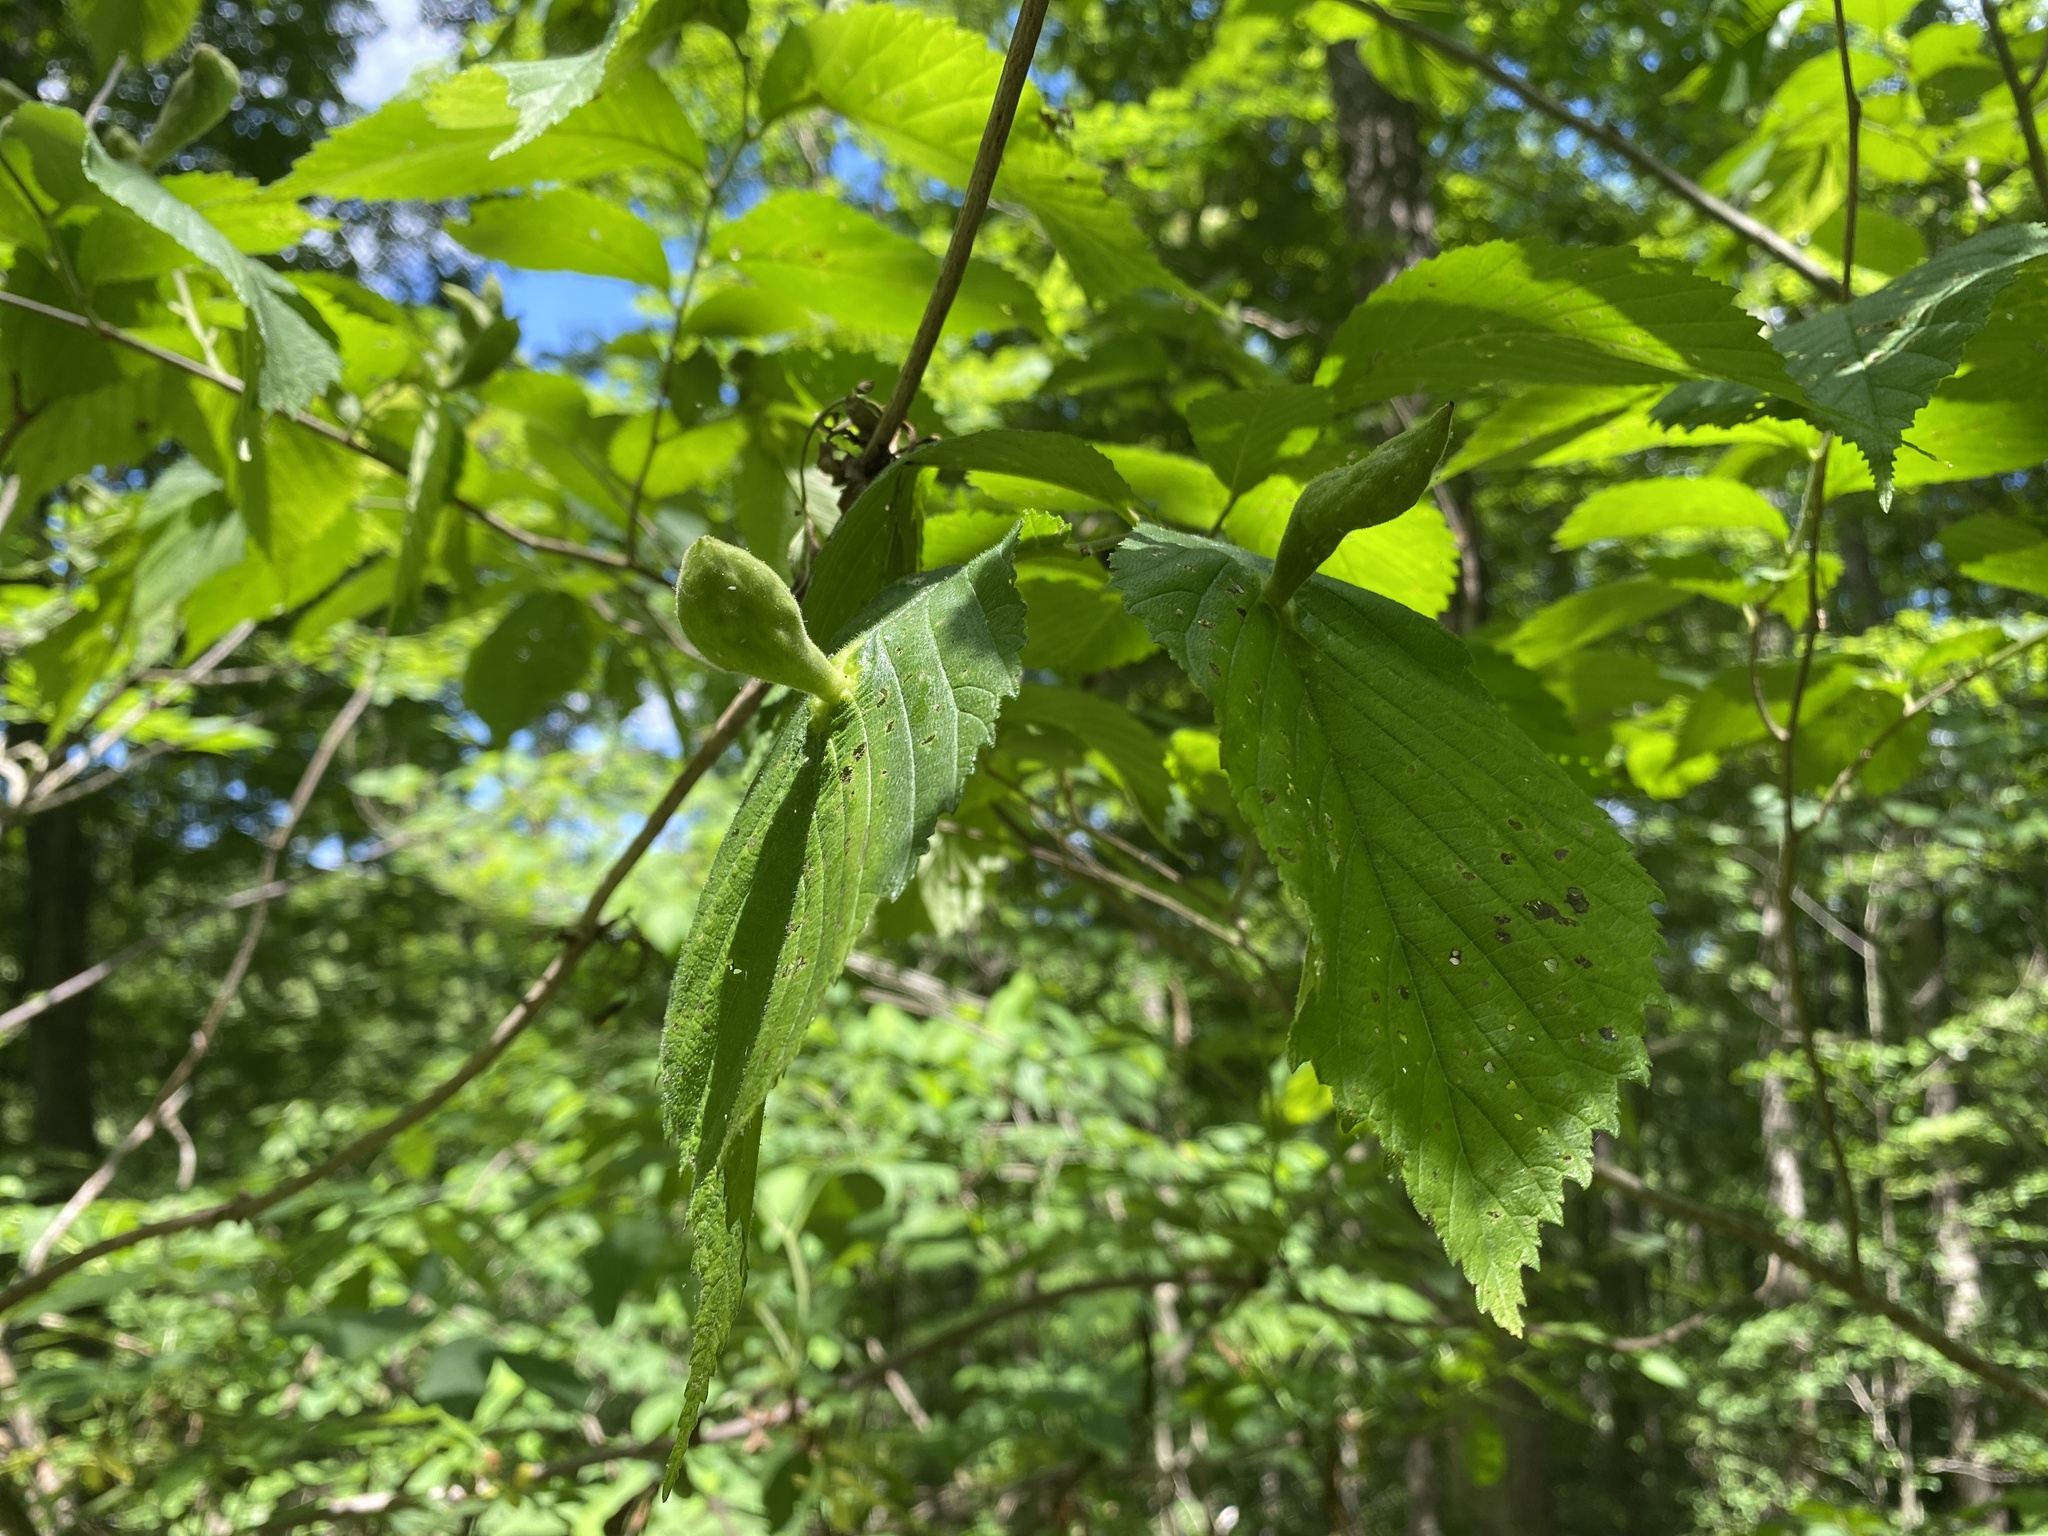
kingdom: Animalia
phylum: Arthropoda
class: Insecta
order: Hemiptera
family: Aphididae
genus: Kaltenbachiella
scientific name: Kaltenbachiella ulmifusa
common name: Elm pouchgall aphid
